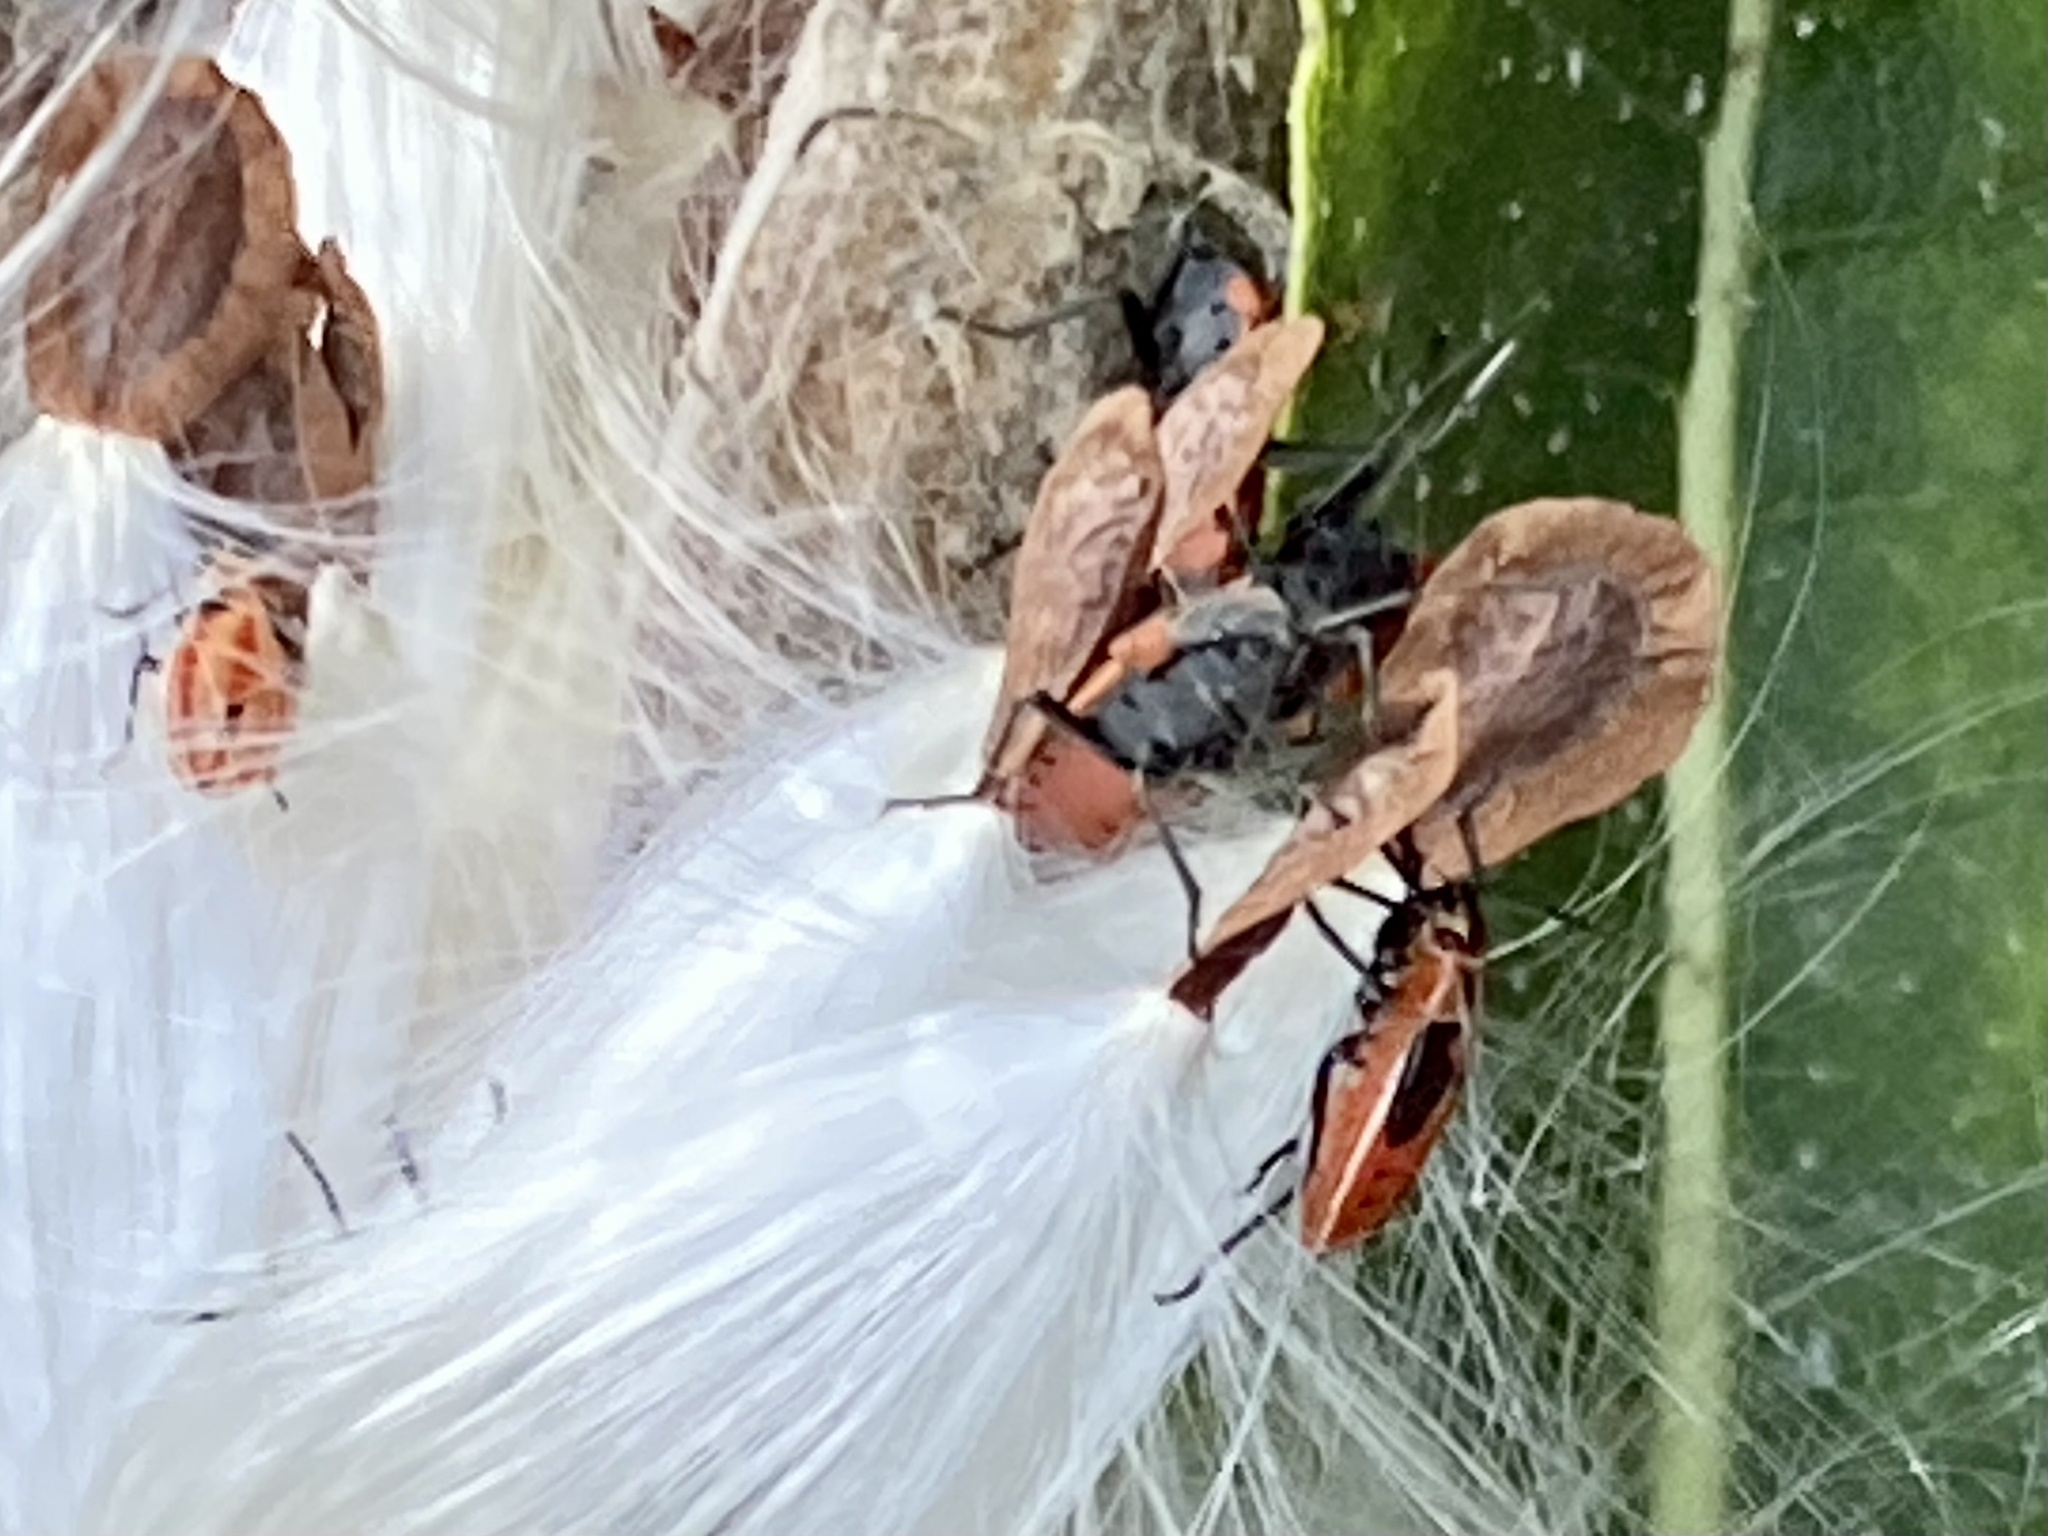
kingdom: Animalia
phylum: Arthropoda
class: Insecta
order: Hemiptera
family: Lygaeidae
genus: Lygaeus
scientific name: Lygaeus kalmii
